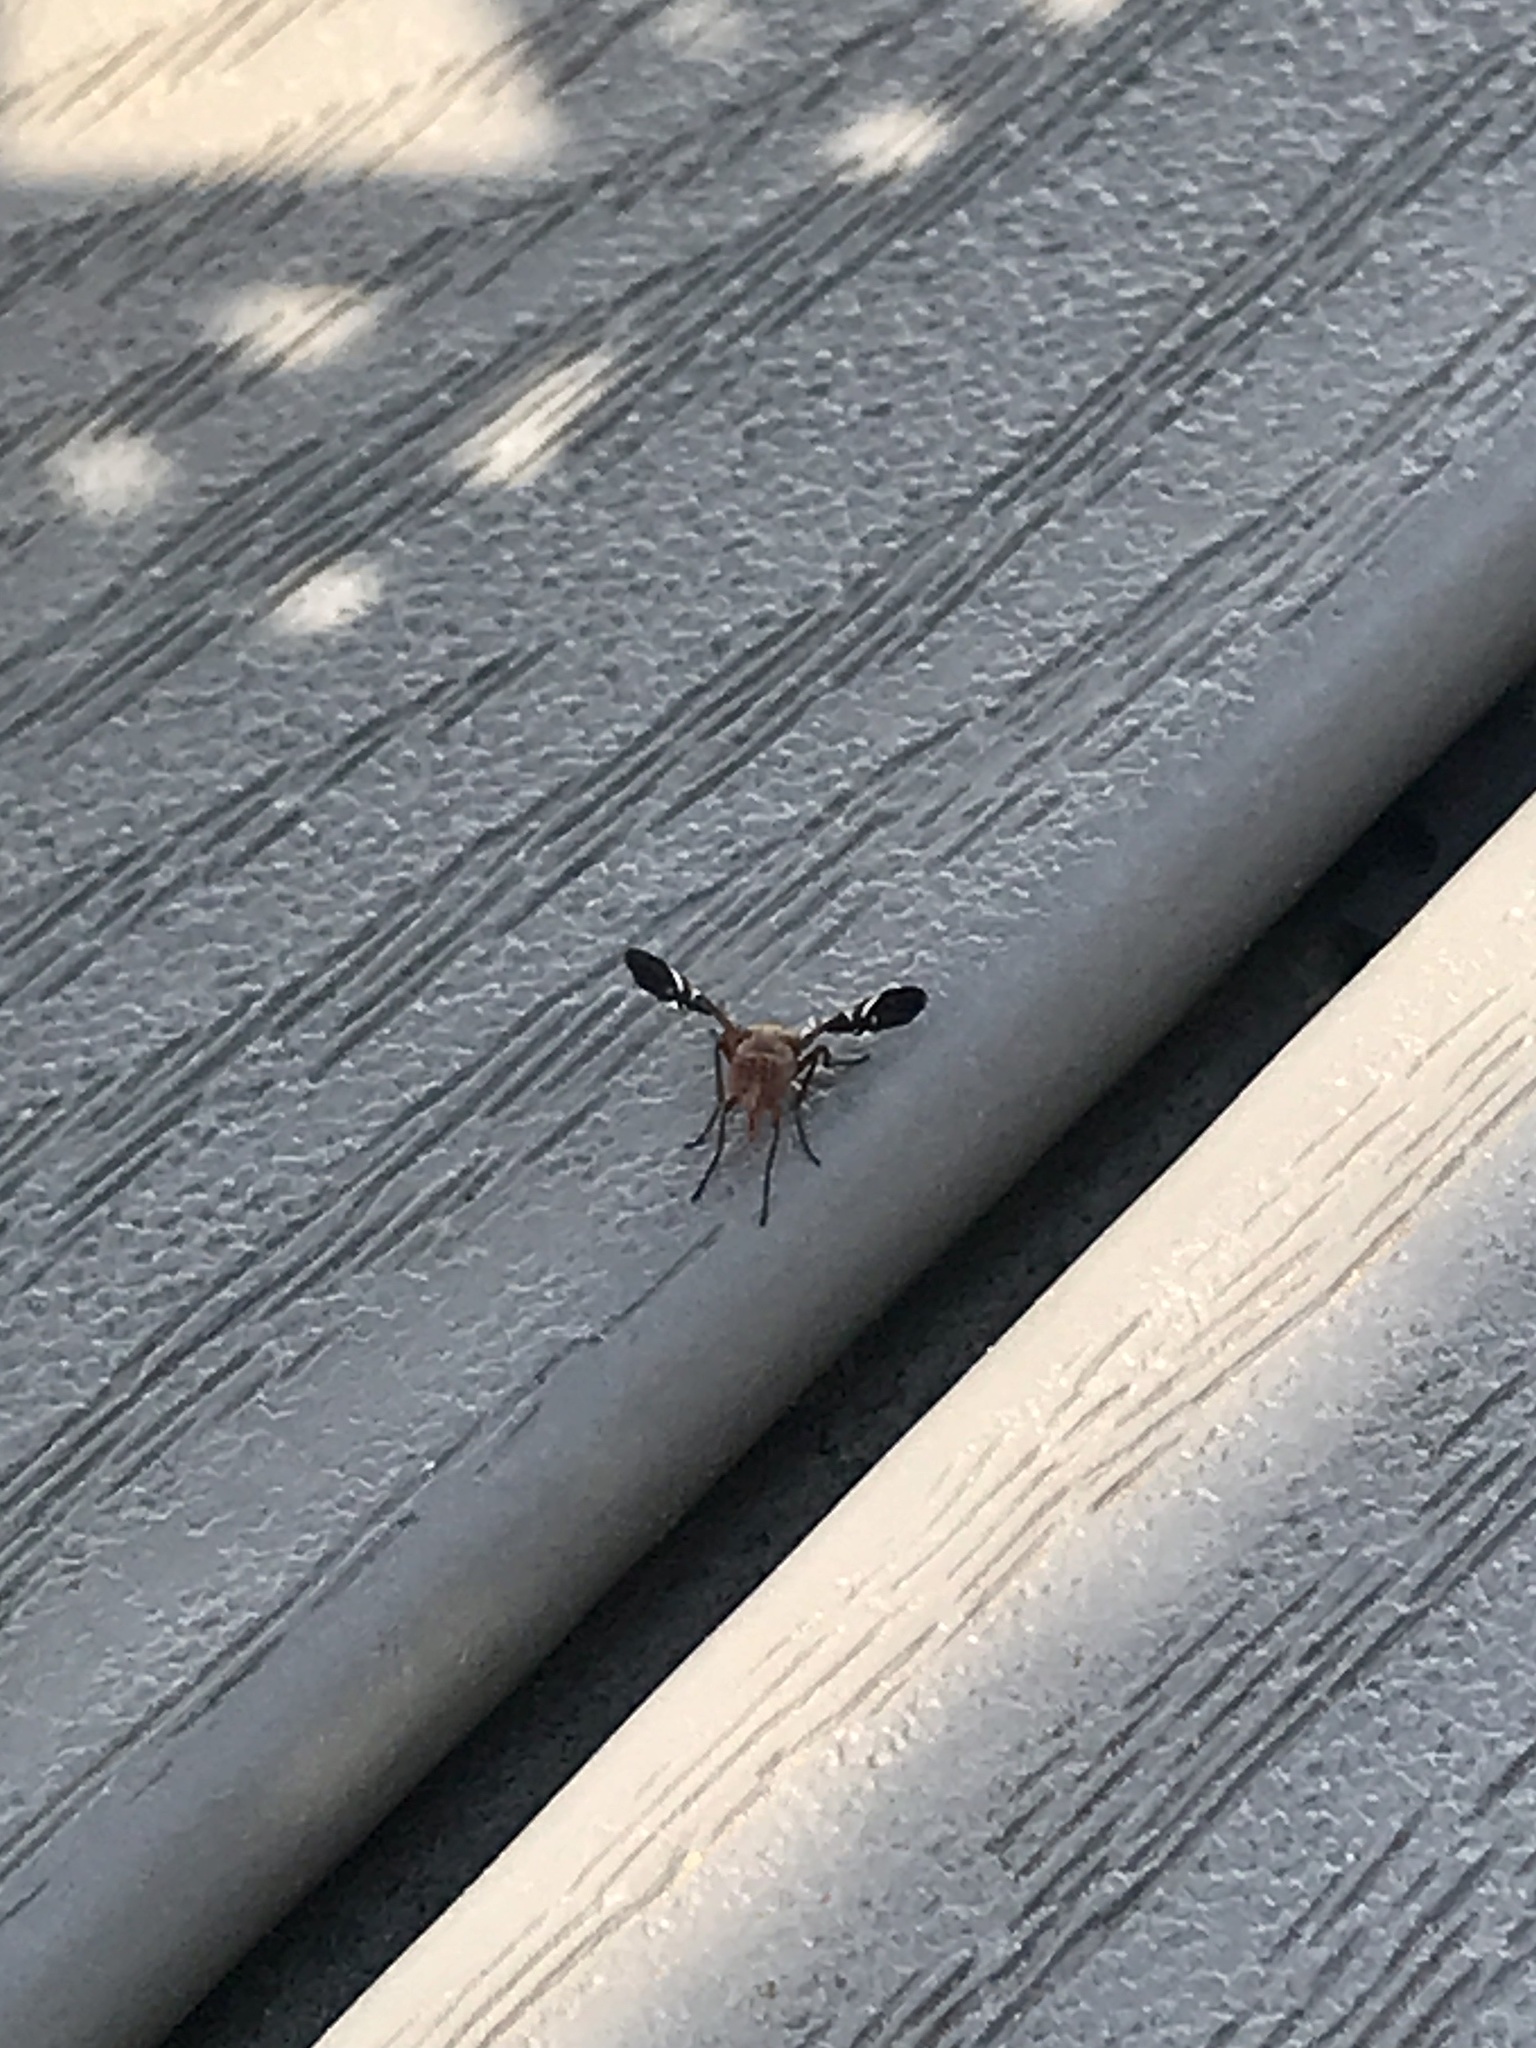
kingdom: Animalia
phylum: Arthropoda
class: Insecta
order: Diptera
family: Ulidiidae
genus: Delphinia
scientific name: Delphinia picta
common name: Common picture-winged fly
